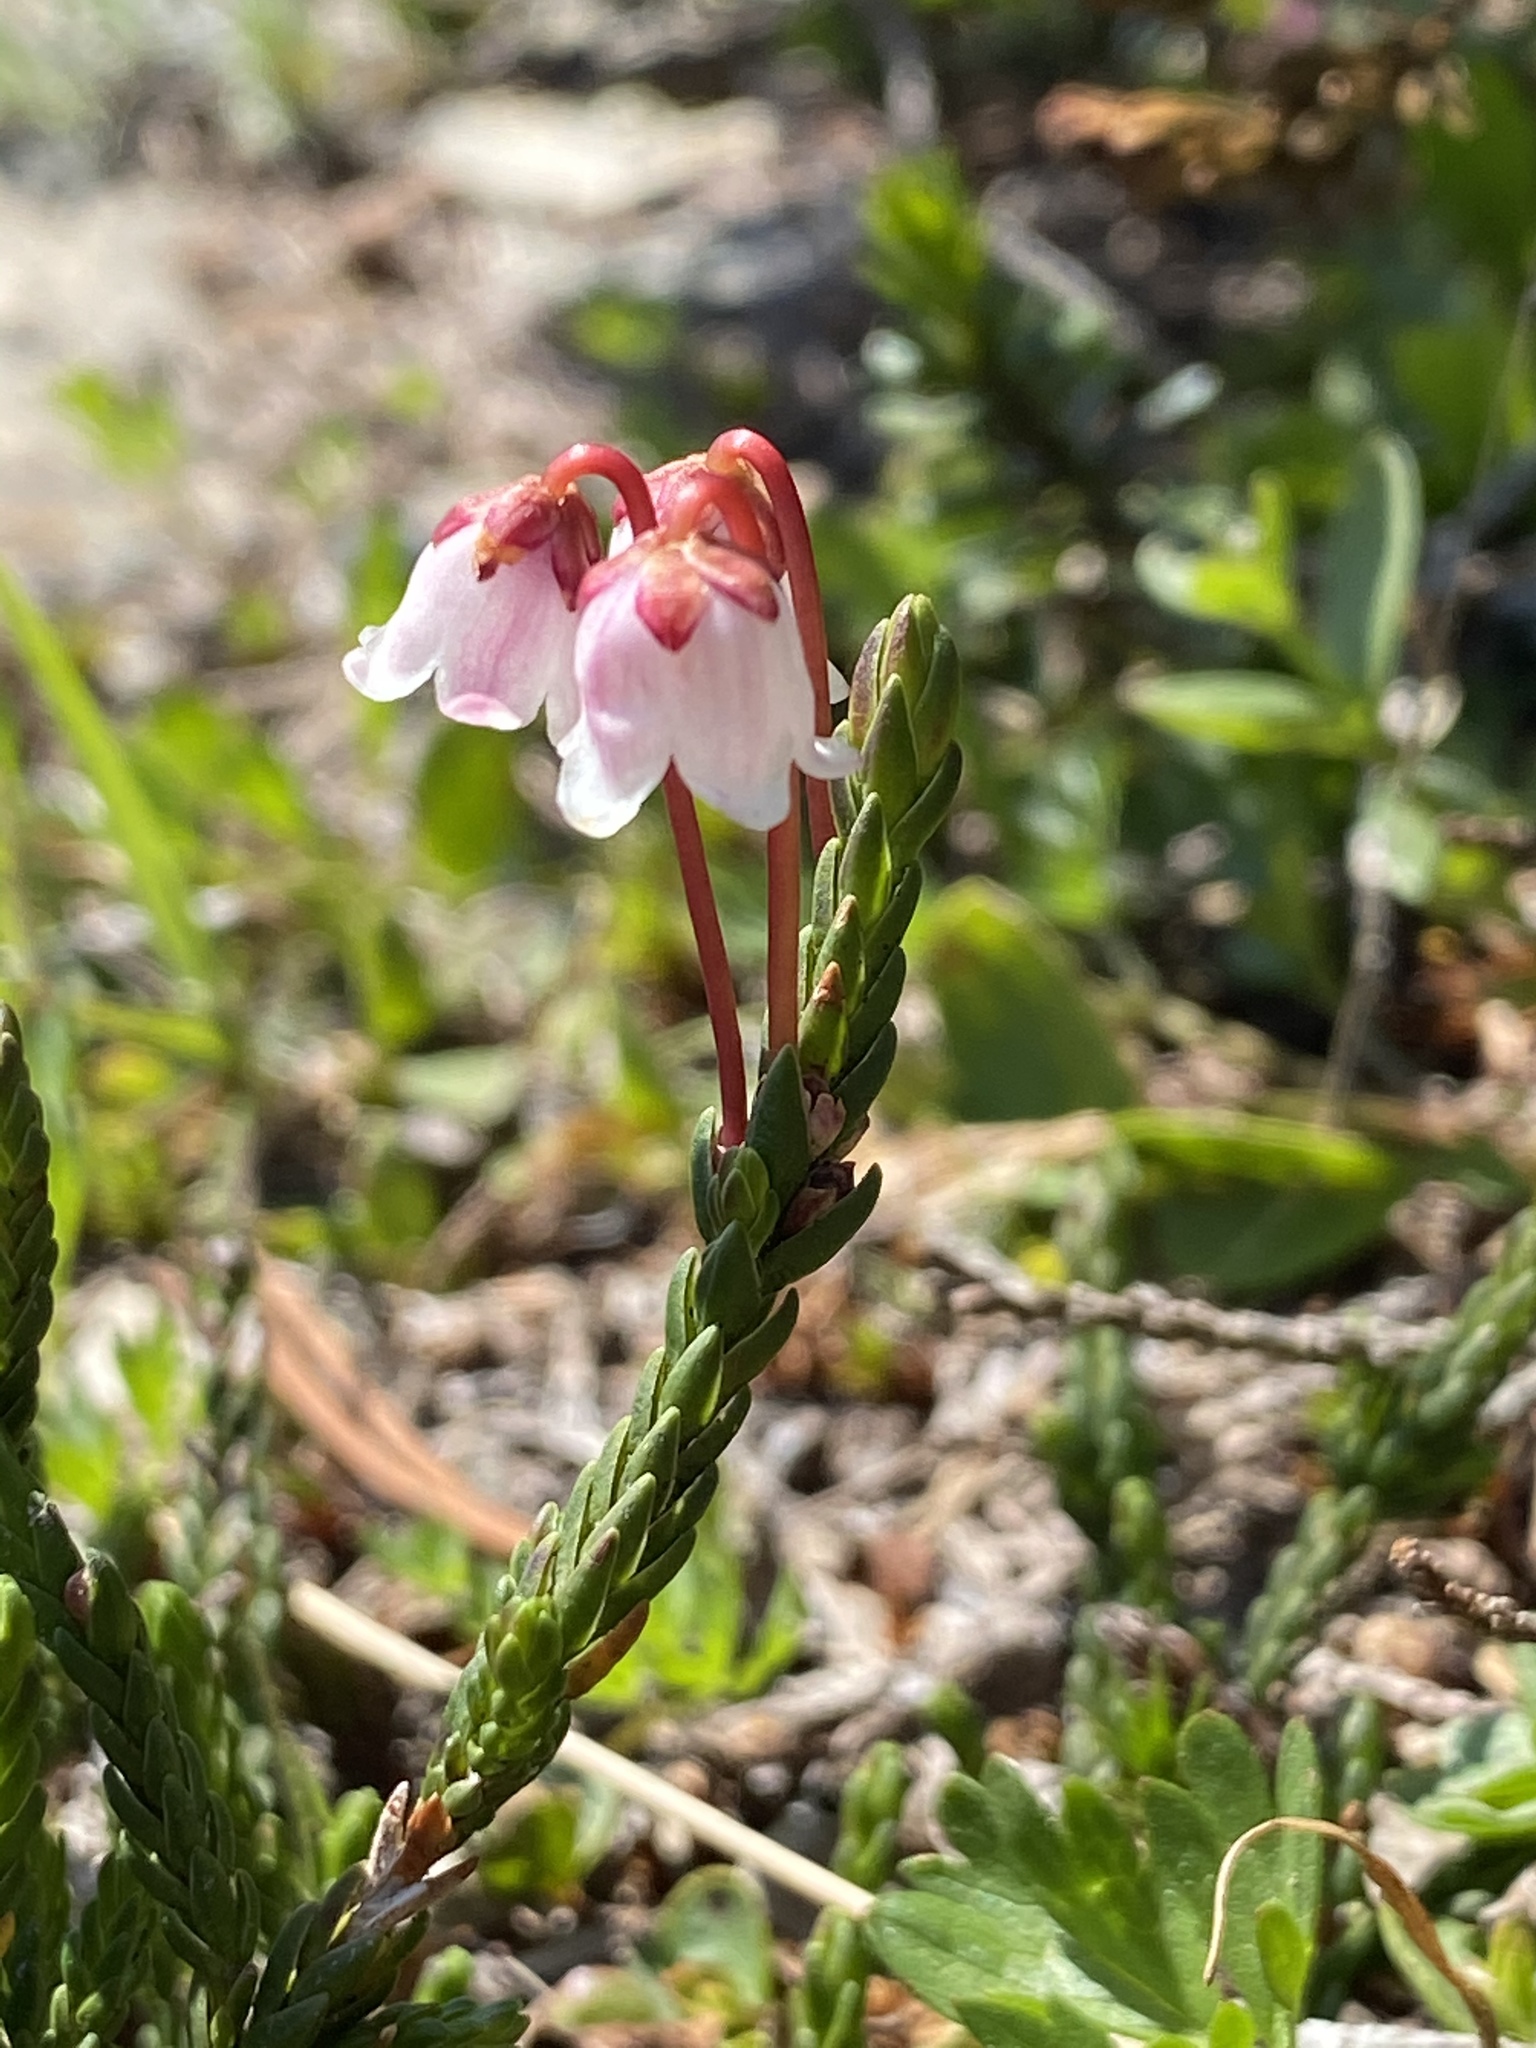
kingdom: Plantae
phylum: Tracheophyta
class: Magnoliopsida
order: Ericales
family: Ericaceae
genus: Cassiope
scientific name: Cassiope mertensiana
